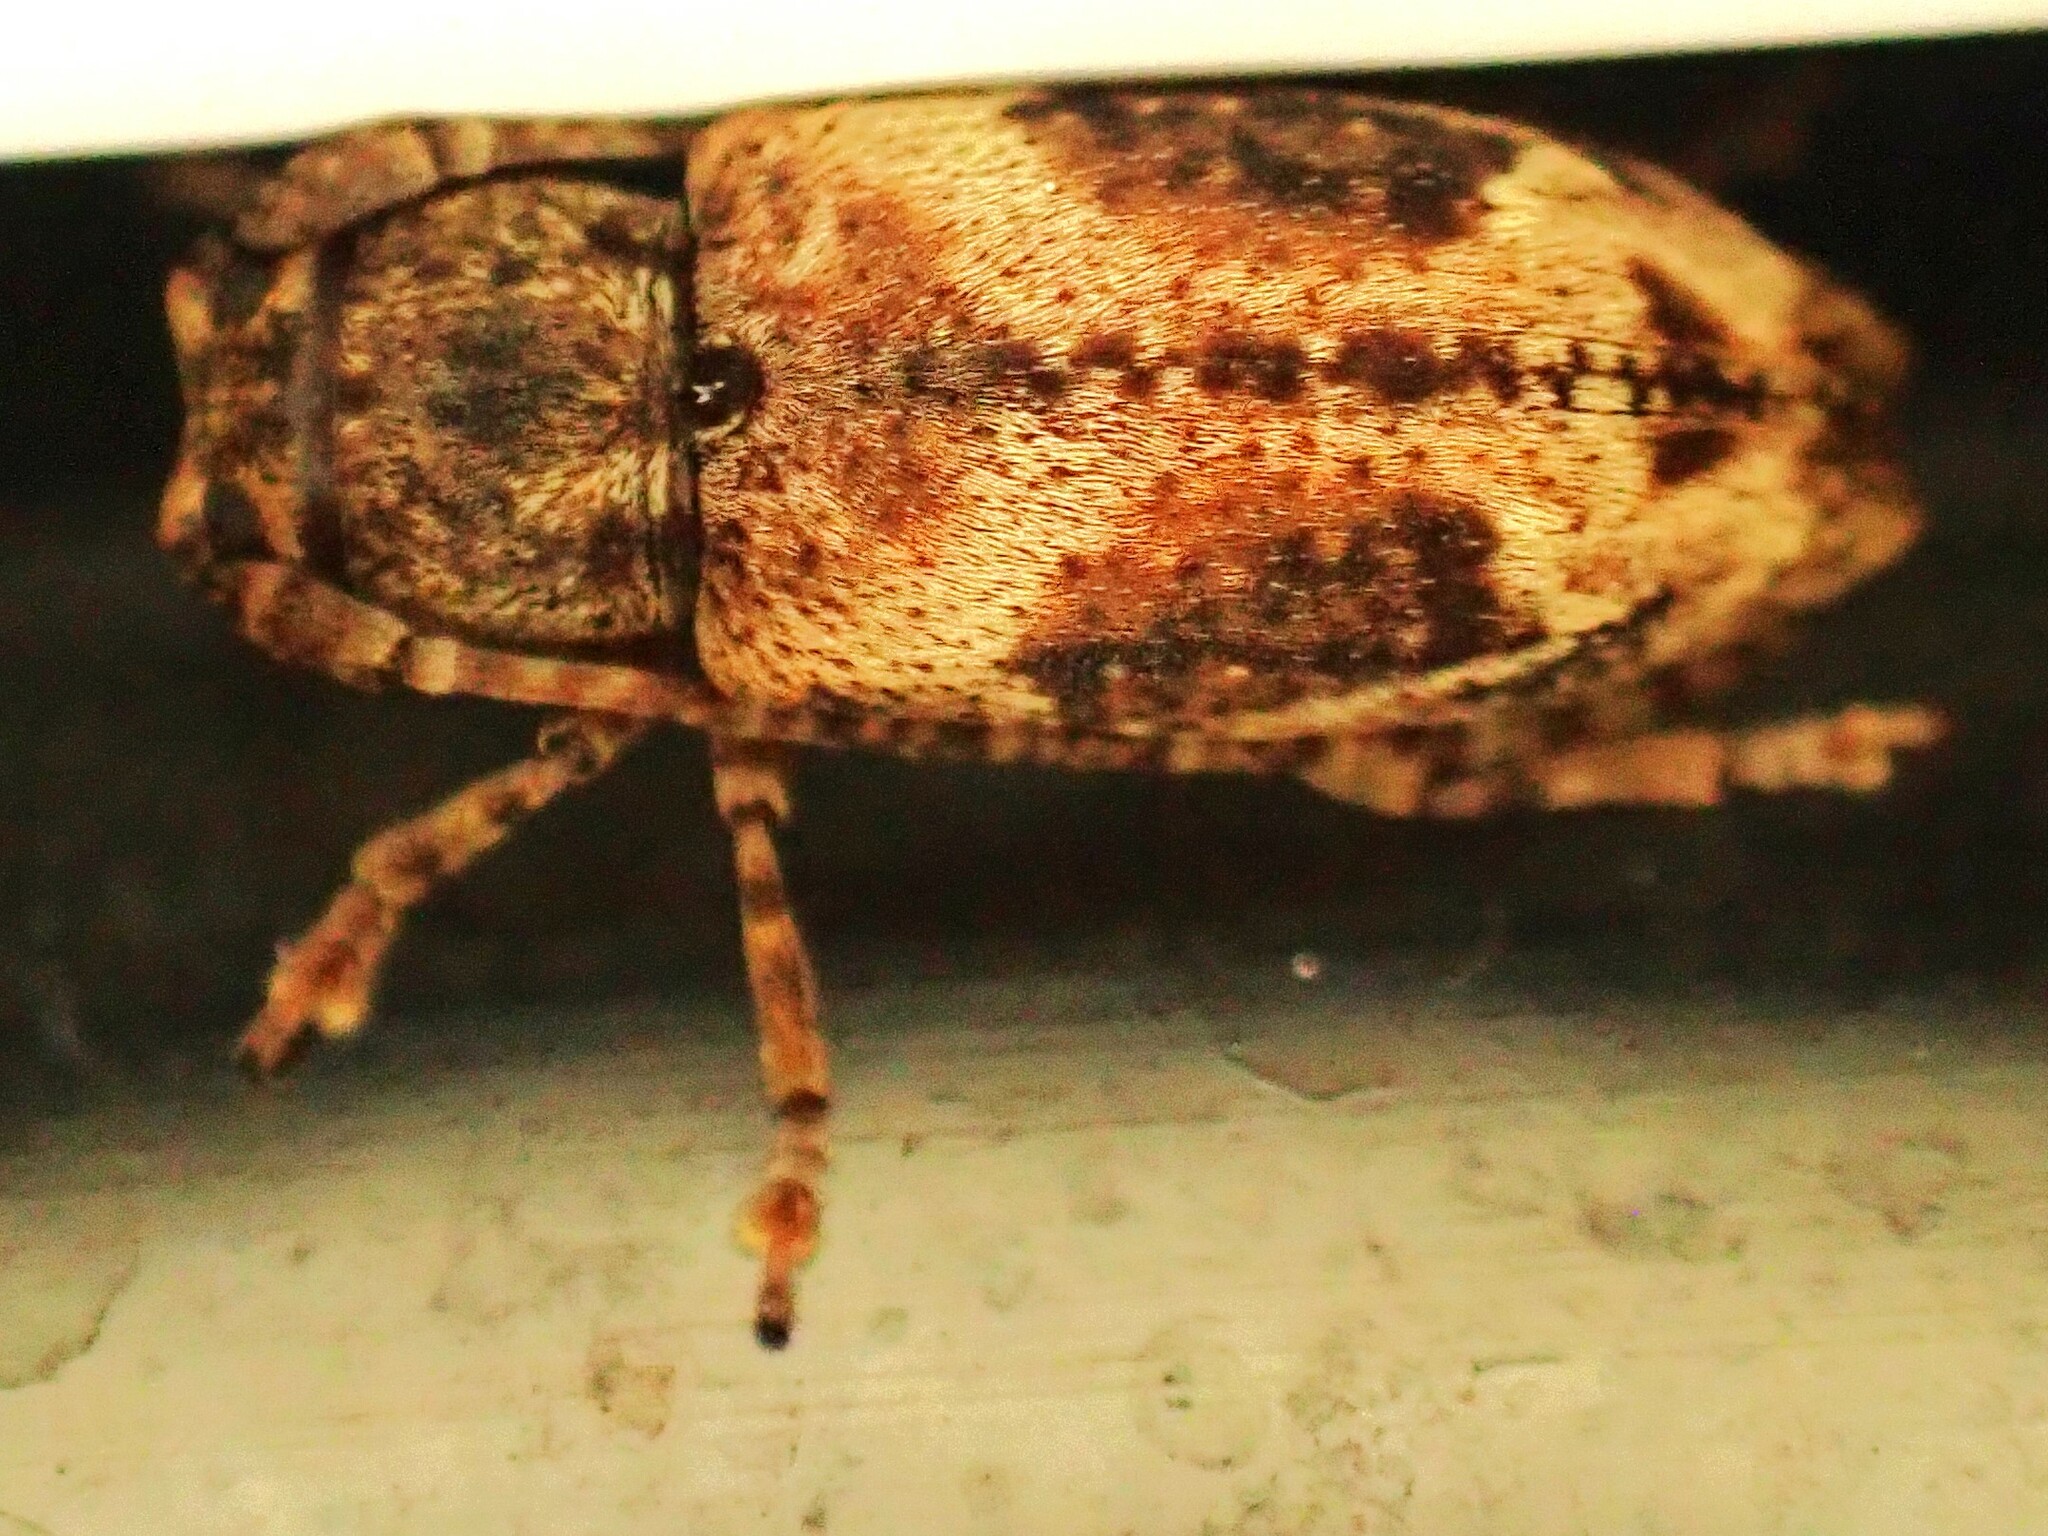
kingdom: Animalia
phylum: Arthropoda
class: Insecta
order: Coleoptera
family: Cerambycidae
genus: Pterolophia
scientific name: Pterolophia lateripicta
